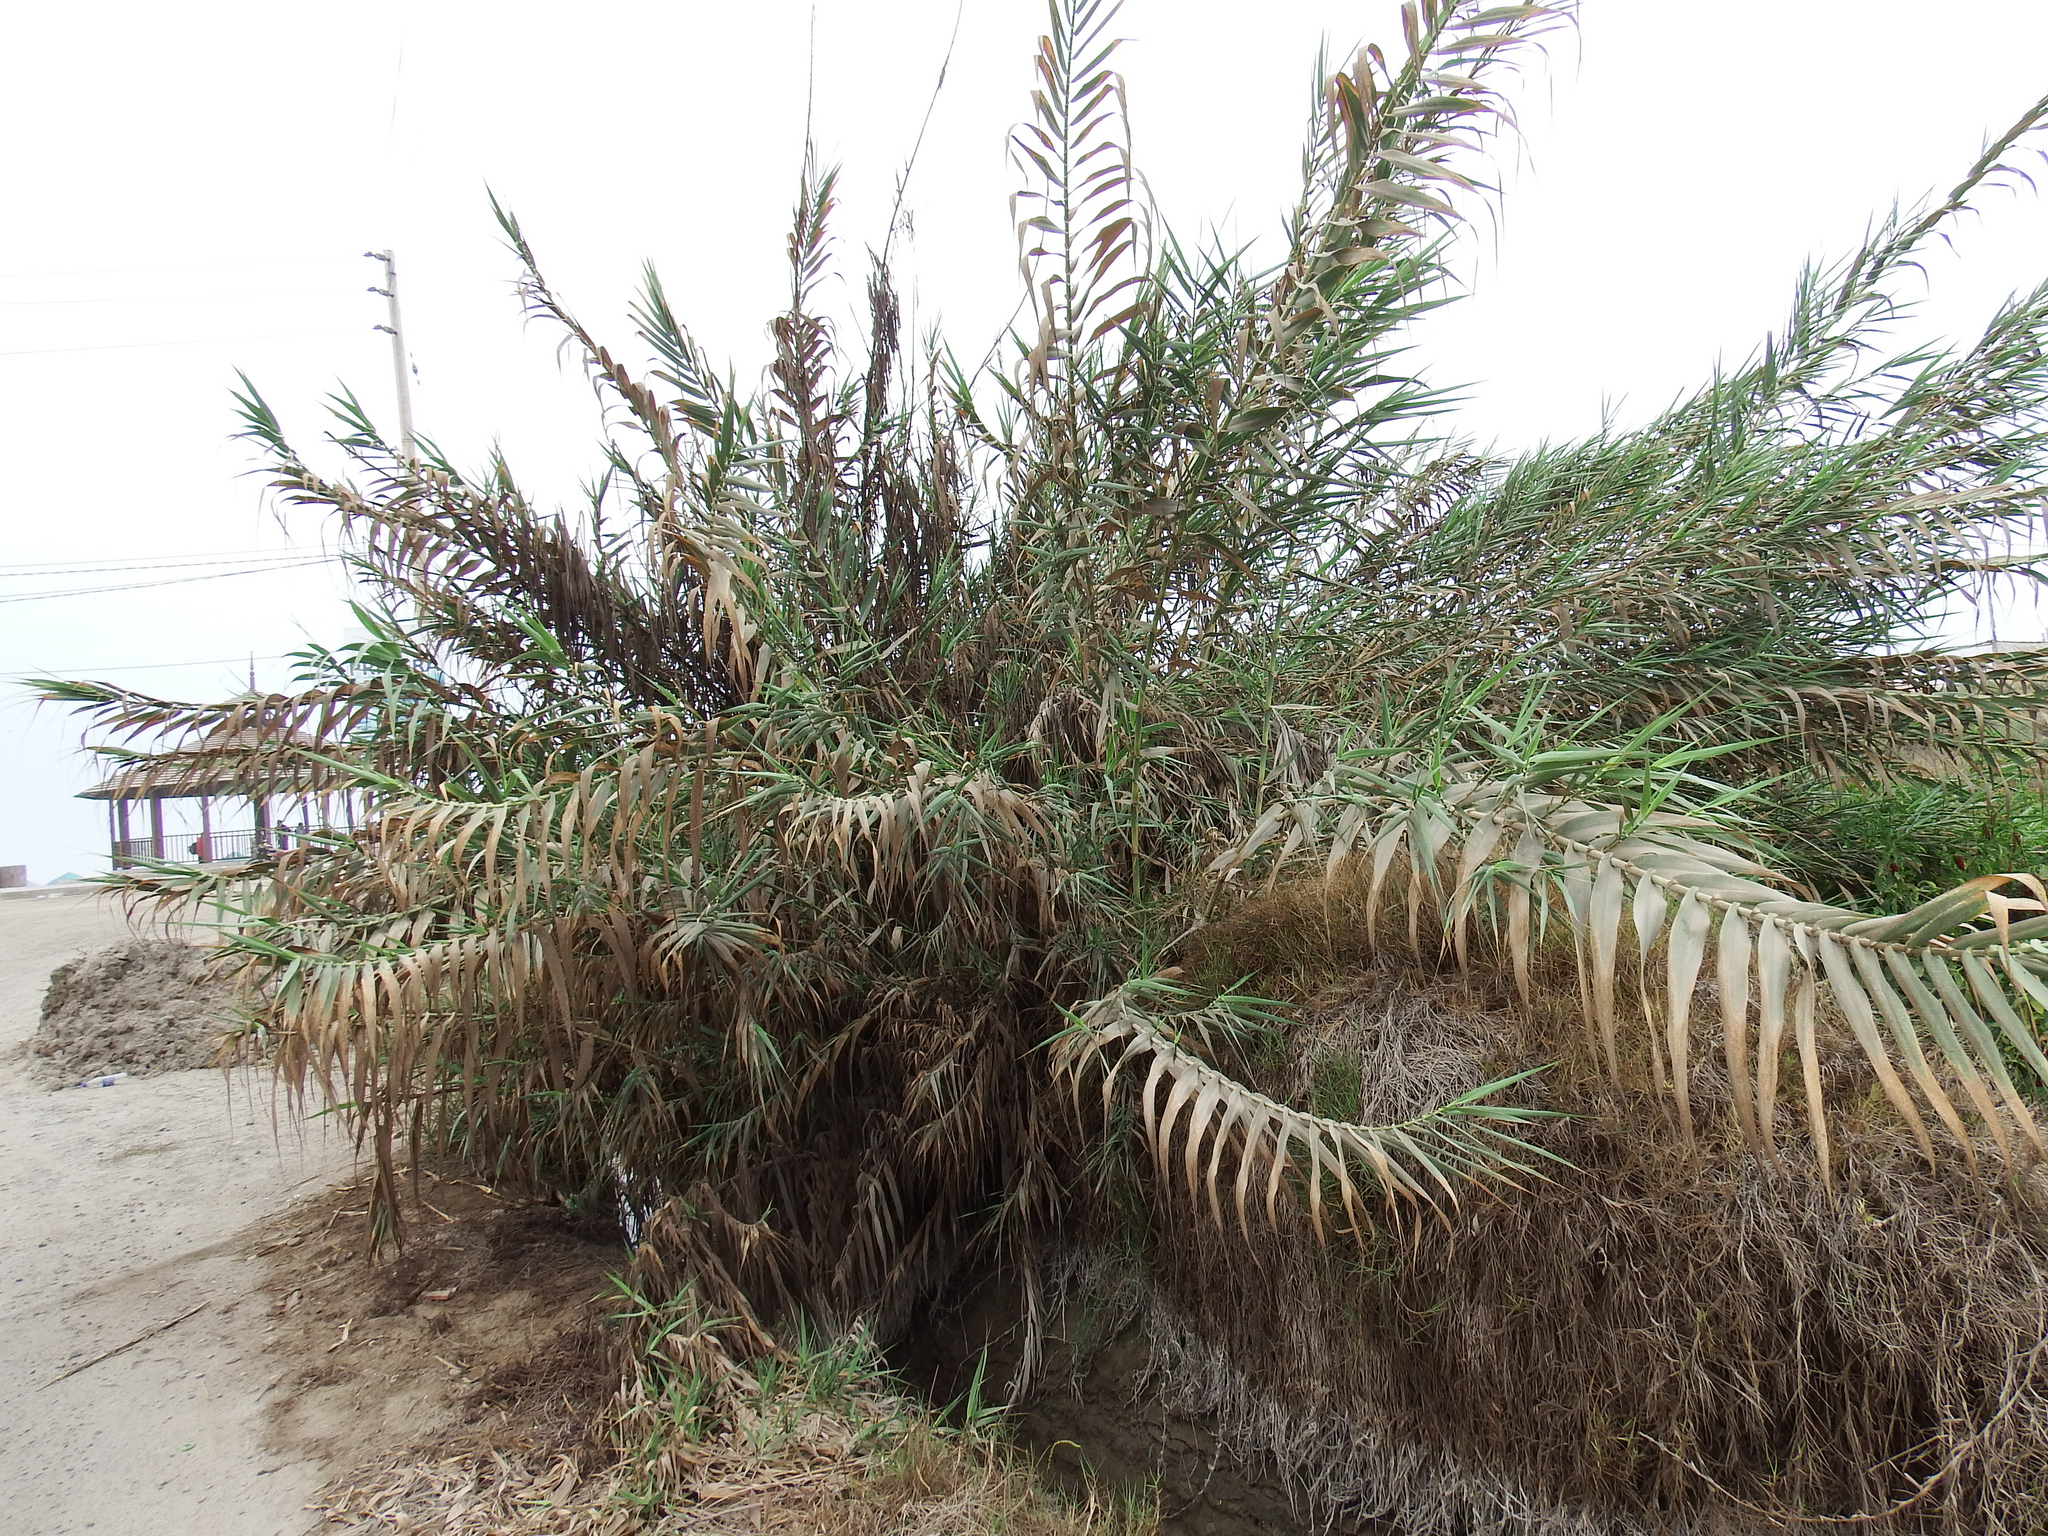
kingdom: Plantae
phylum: Tracheophyta
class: Liliopsida
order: Poales
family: Poaceae
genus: Arundo
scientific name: Arundo donax
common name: Giant reed
